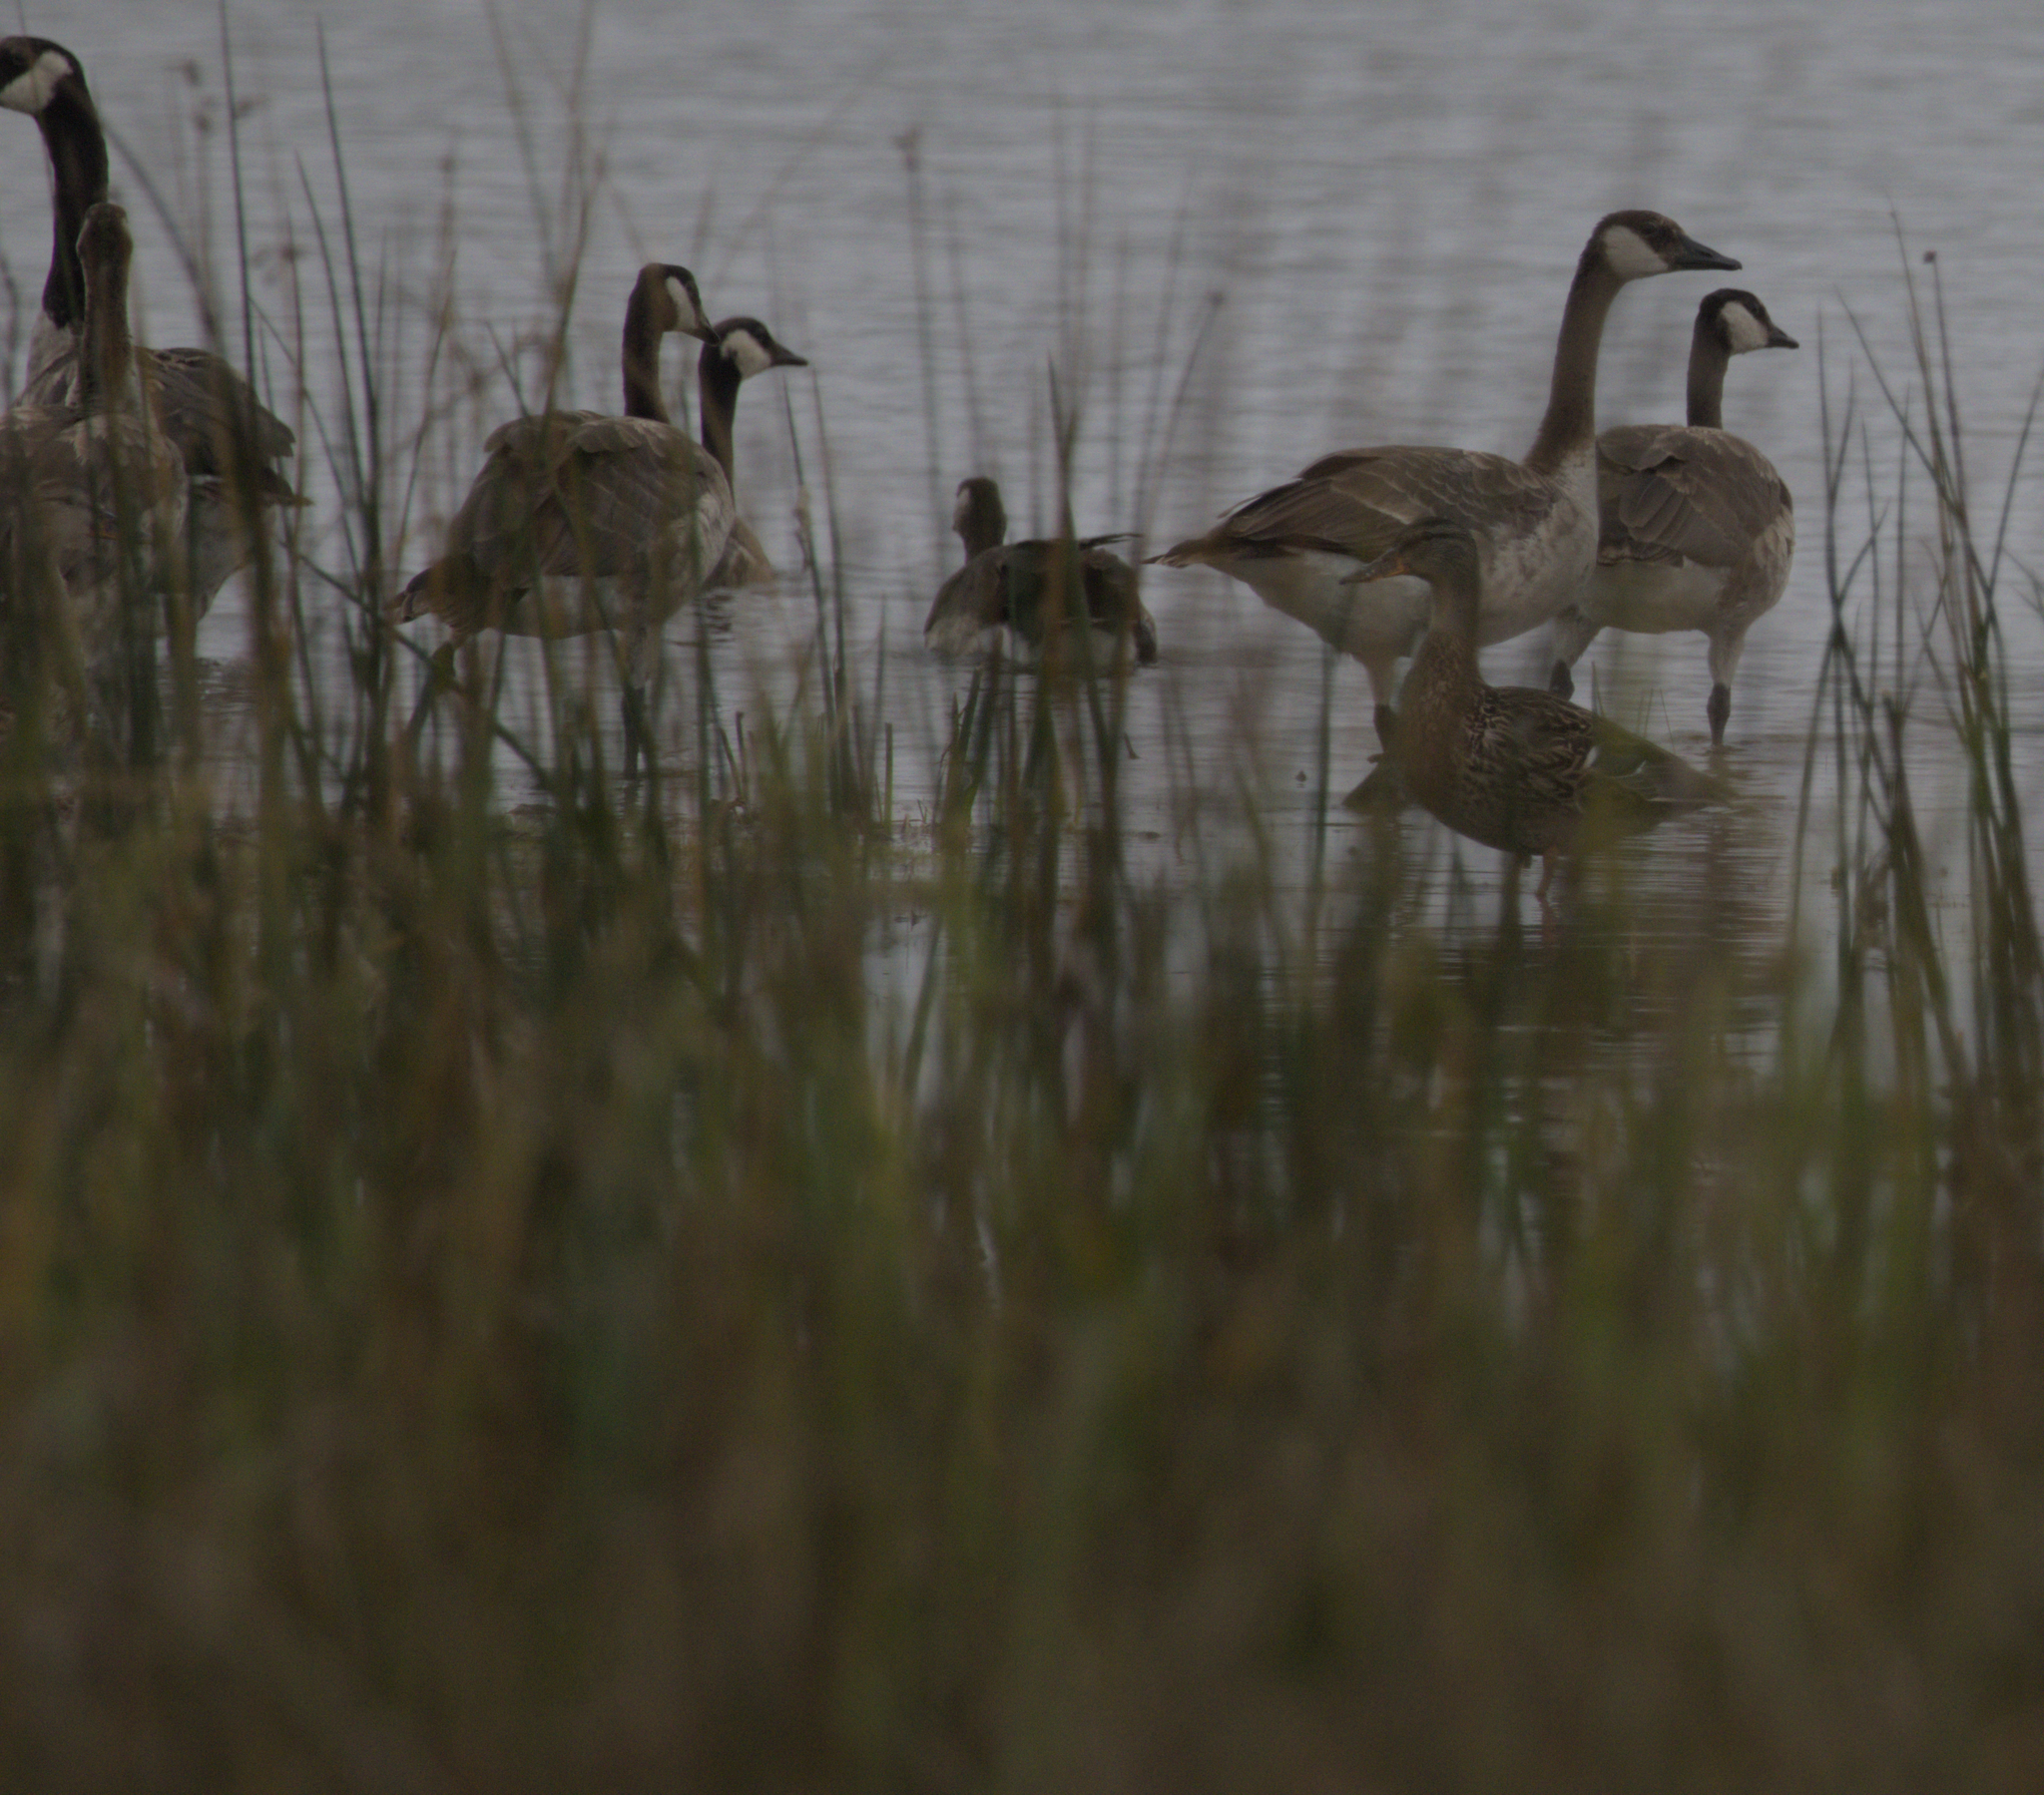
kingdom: Animalia
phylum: Chordata
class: Aves
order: Anseriformes
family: Anatidae
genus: Branta
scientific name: Branta canadensis
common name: Canada goose
